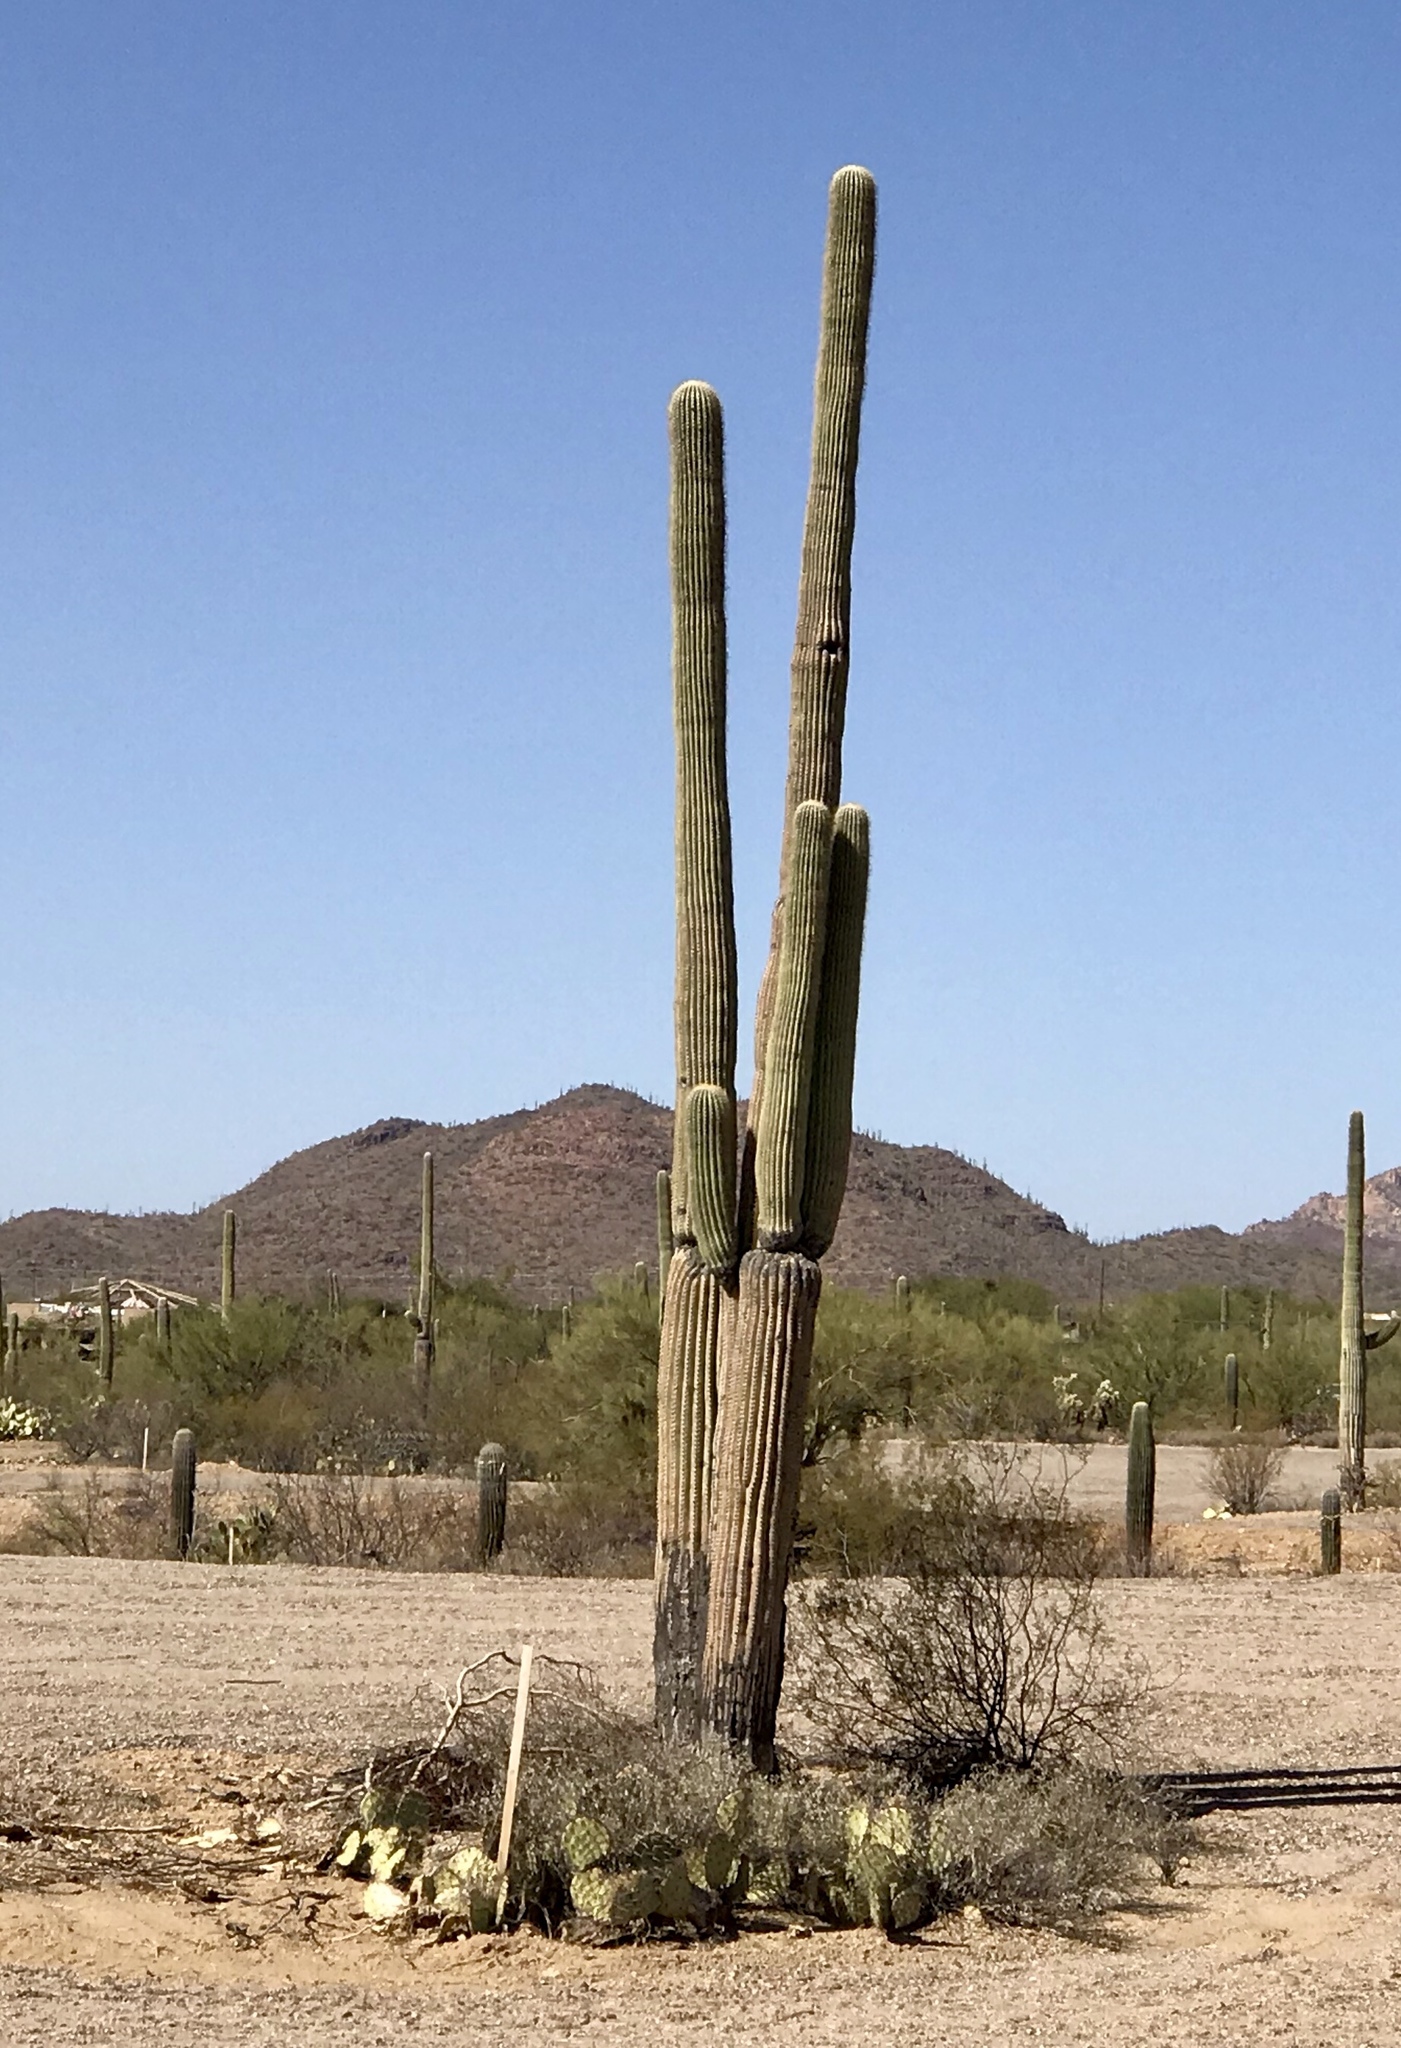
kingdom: Plantae
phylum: Tracheophyta
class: Magnoliopsida
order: Caryophyllales
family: Cactaceae
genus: Carnegiea
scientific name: Carnegiea gigantea
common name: Saguaro
